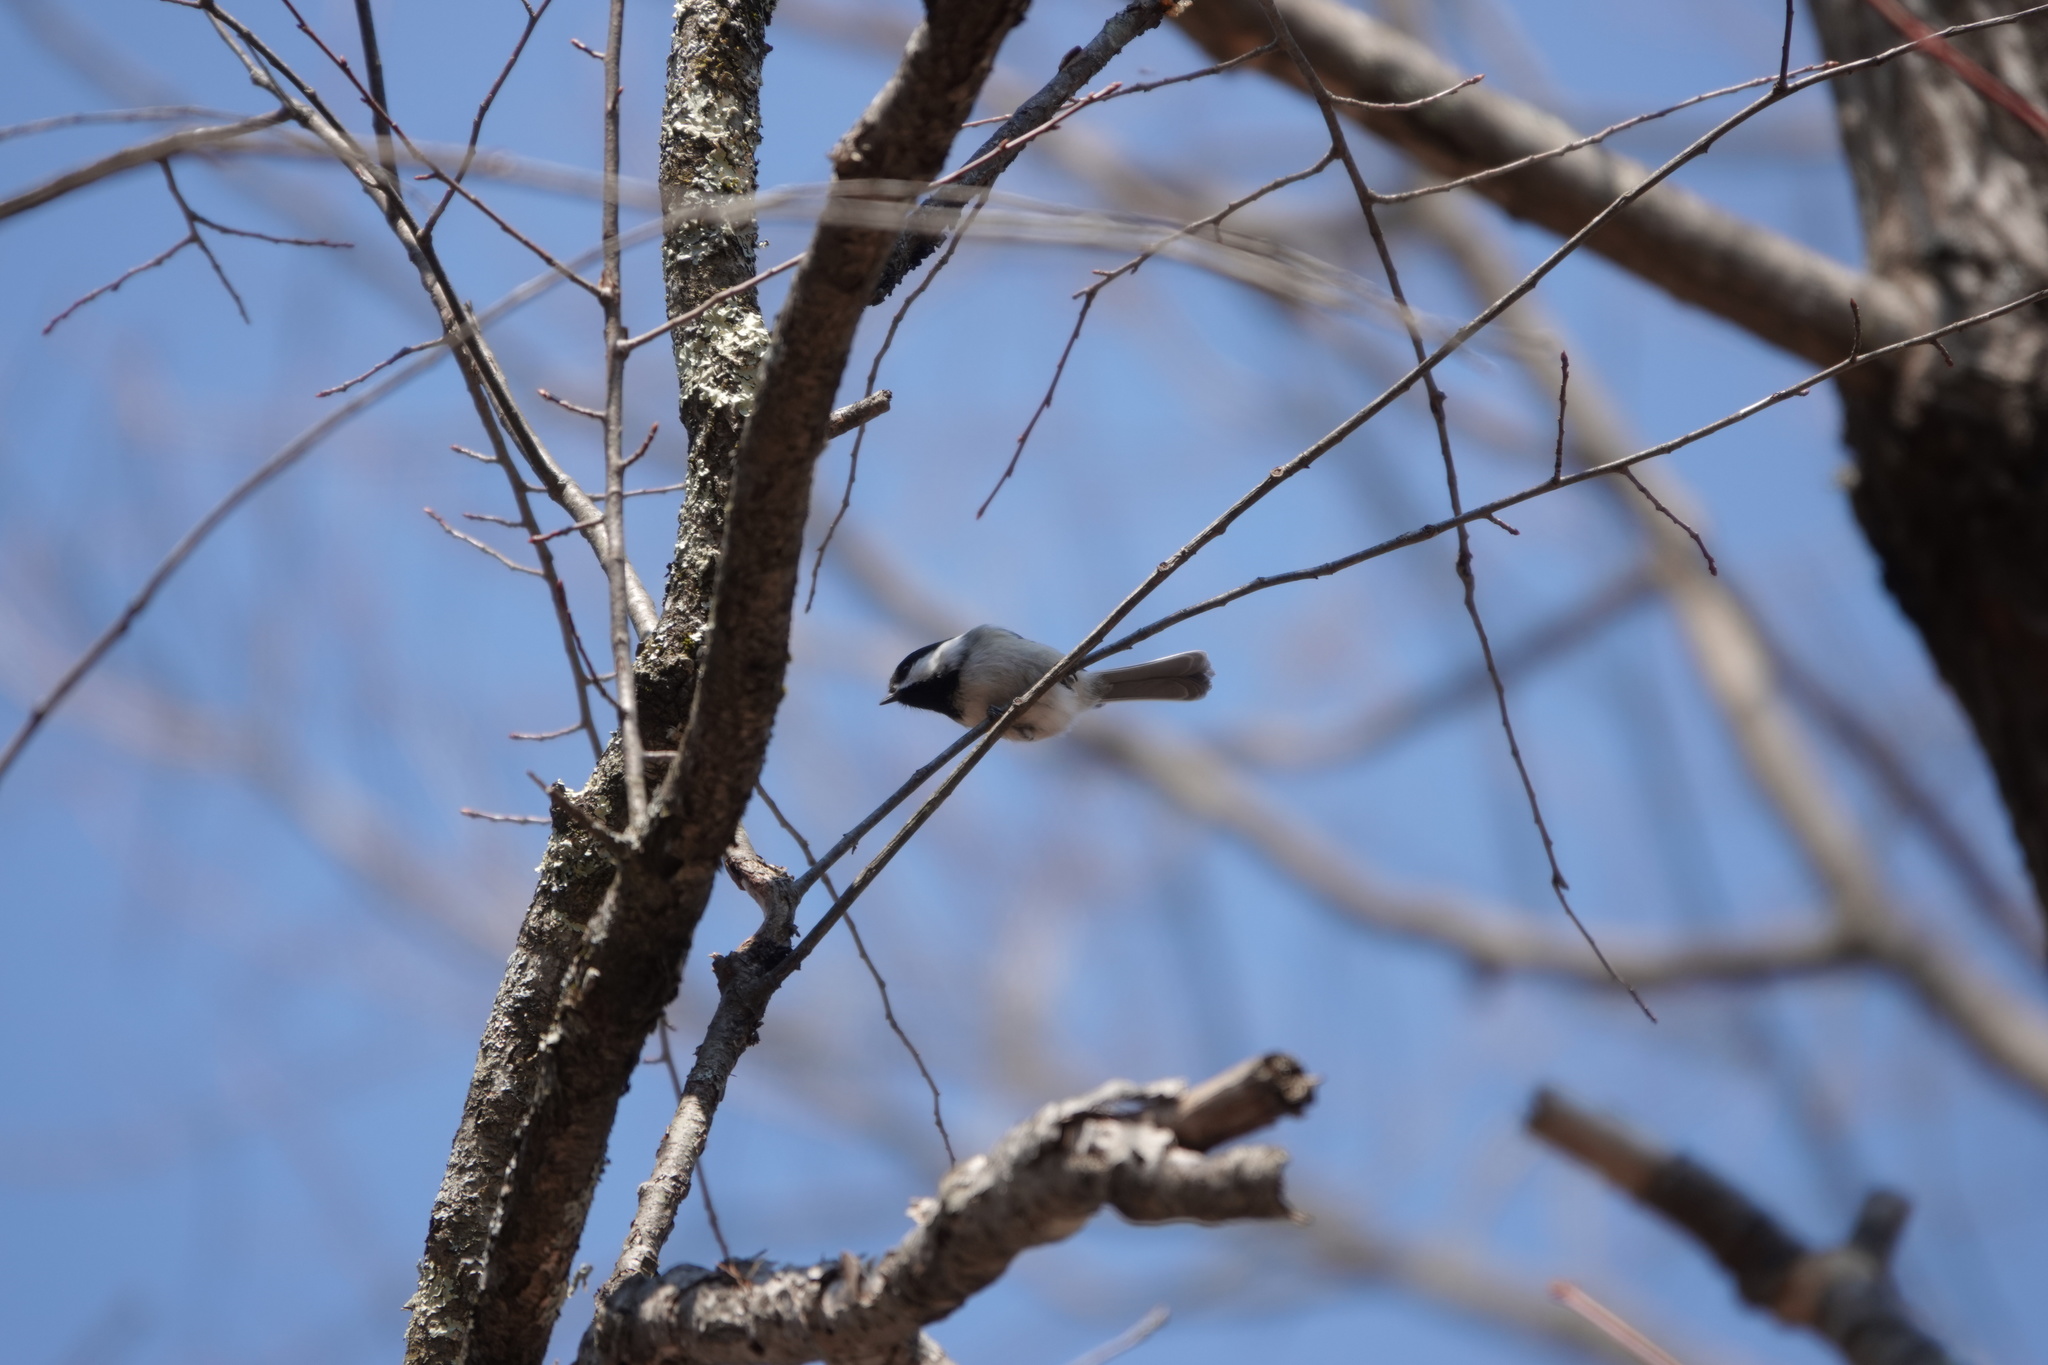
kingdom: Animalia
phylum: Chordata
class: Aves
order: Passeriformes
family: Paridae
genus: Poecile
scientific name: Poecile atricapillus
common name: Black-capped chickadee
